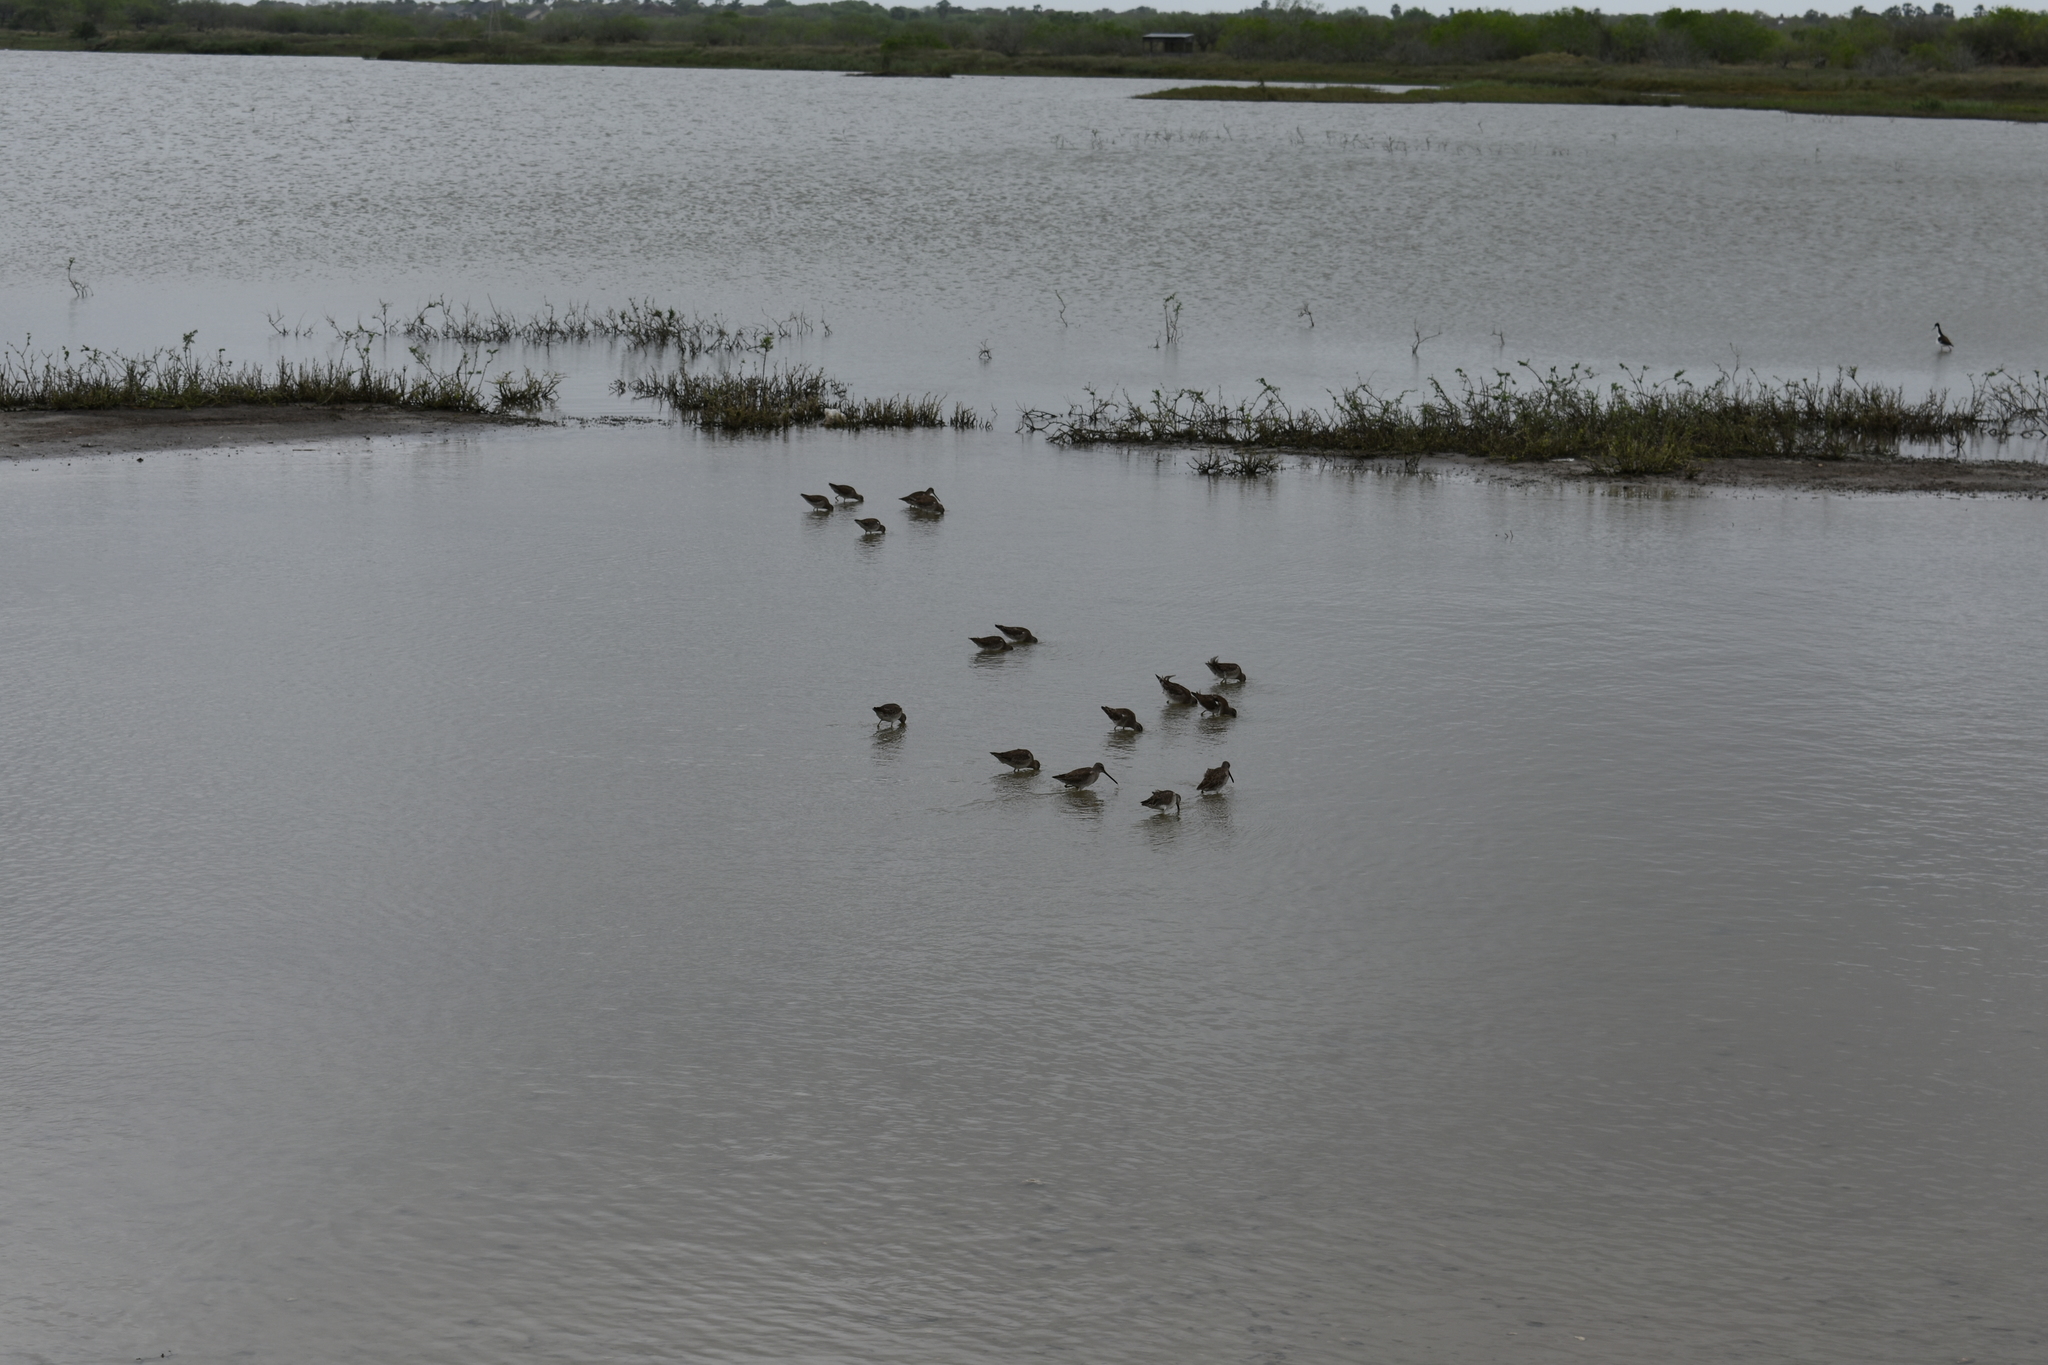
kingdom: Animalia
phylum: Chordata
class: Aves
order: Charadriiformes
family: Scolopacidae
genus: Limnodromus
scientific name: Limnodromus
